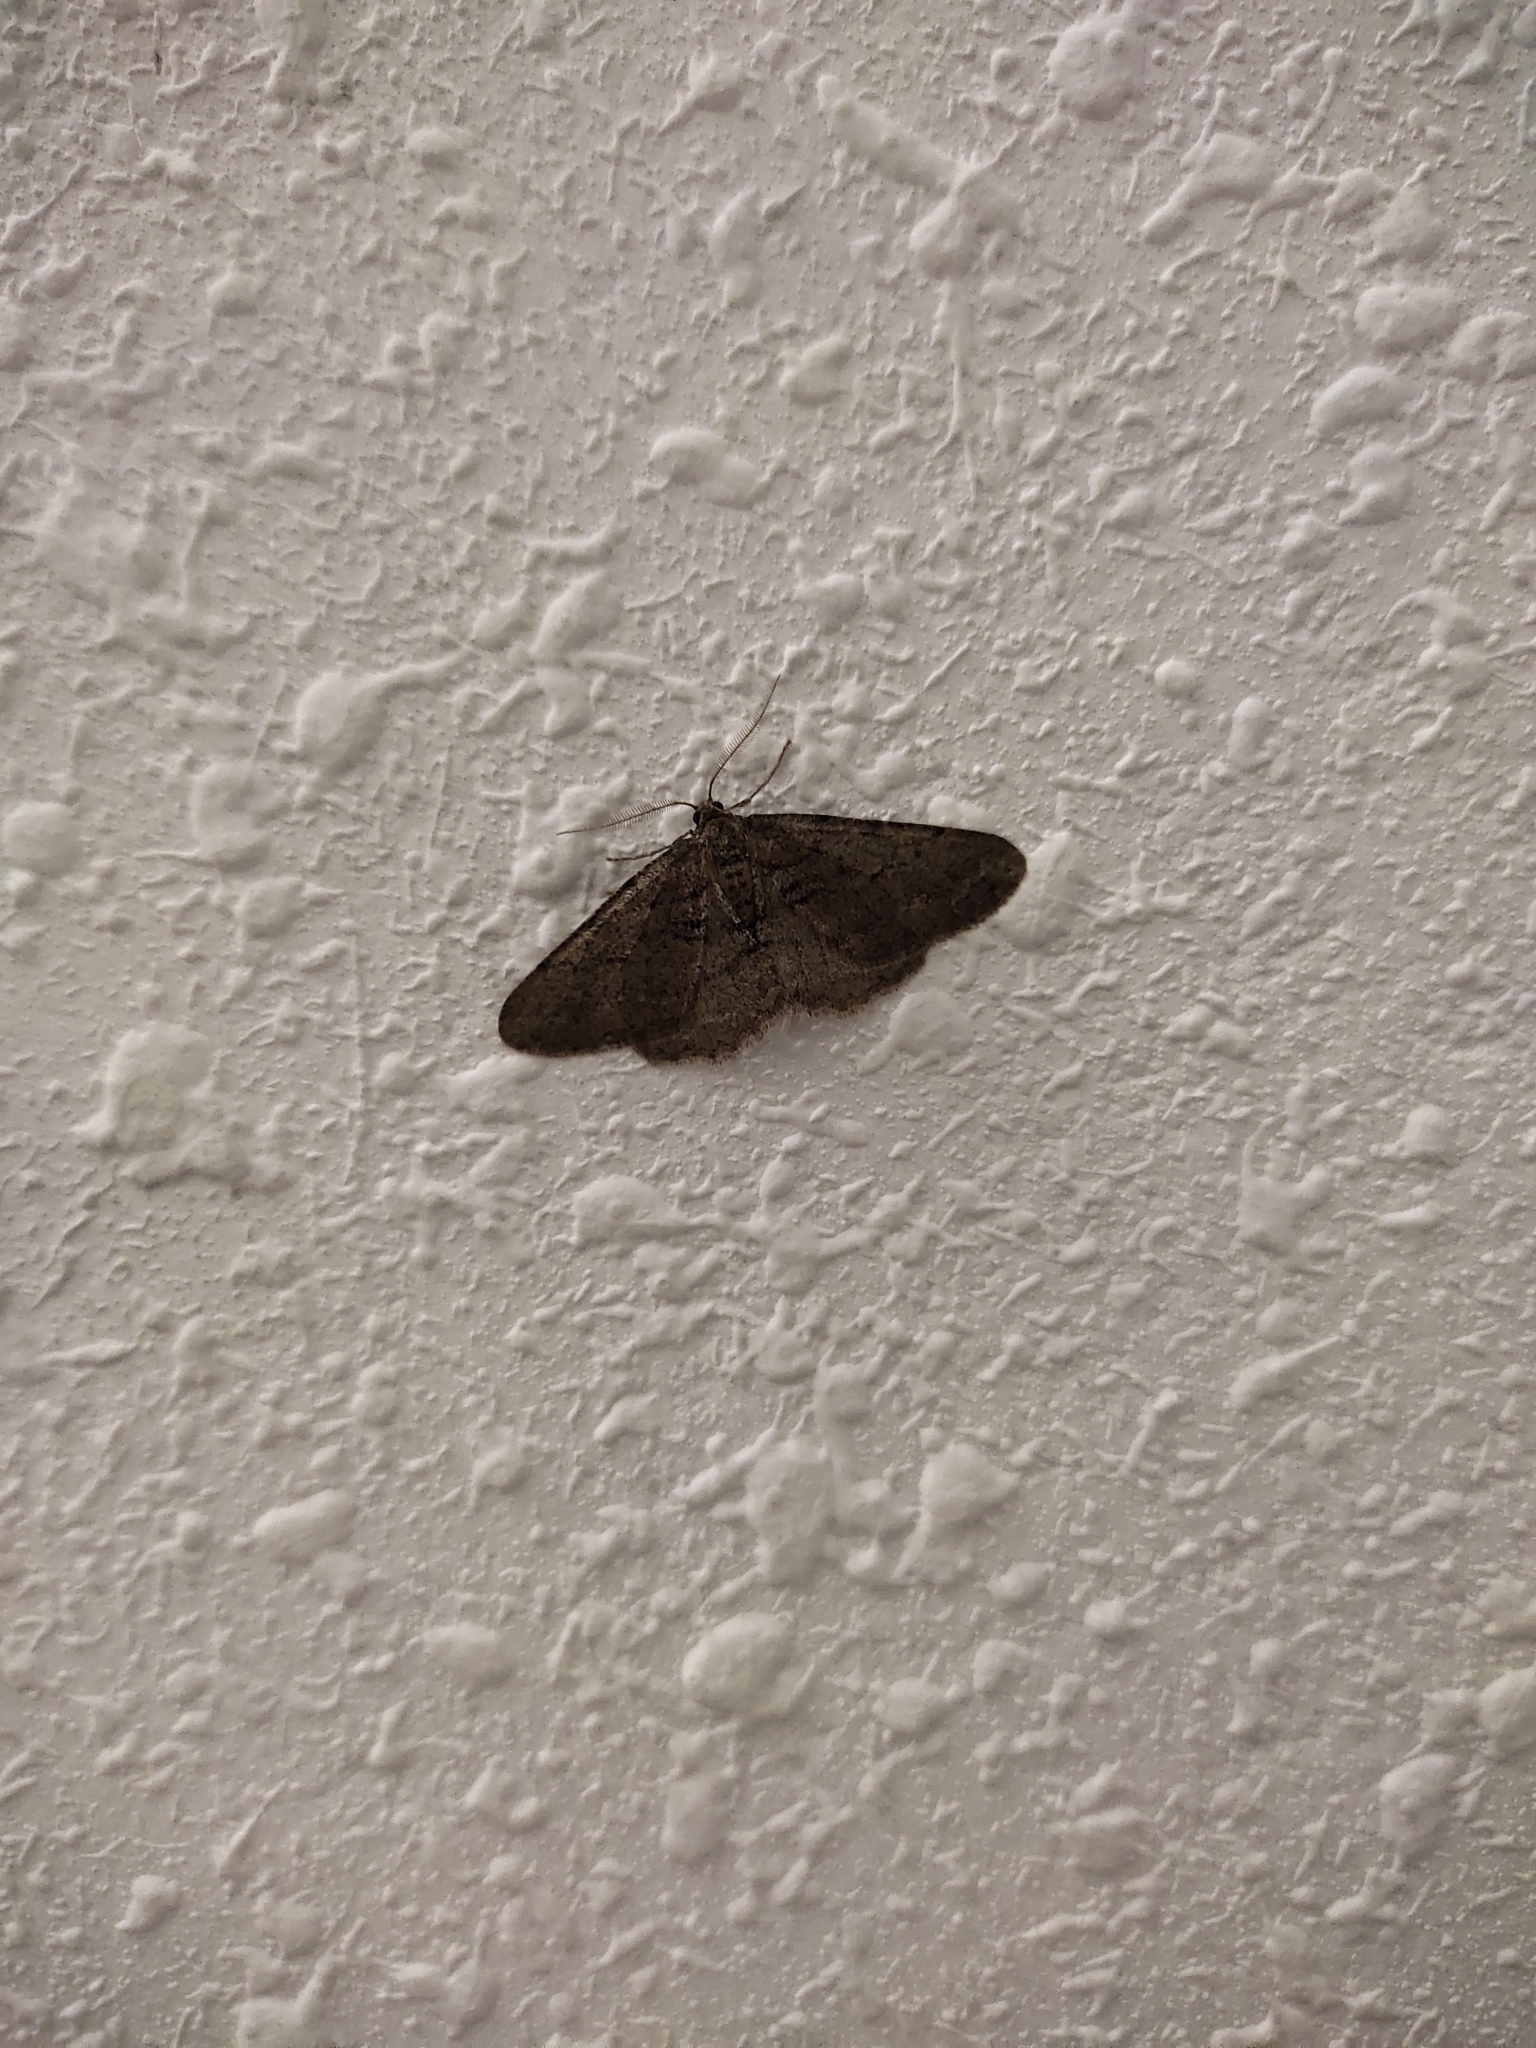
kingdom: Animalia
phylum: Arthropoda
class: Insecta
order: Lepidoptera
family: Geometridae
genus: Agriopis
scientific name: Agriopis bajaria
